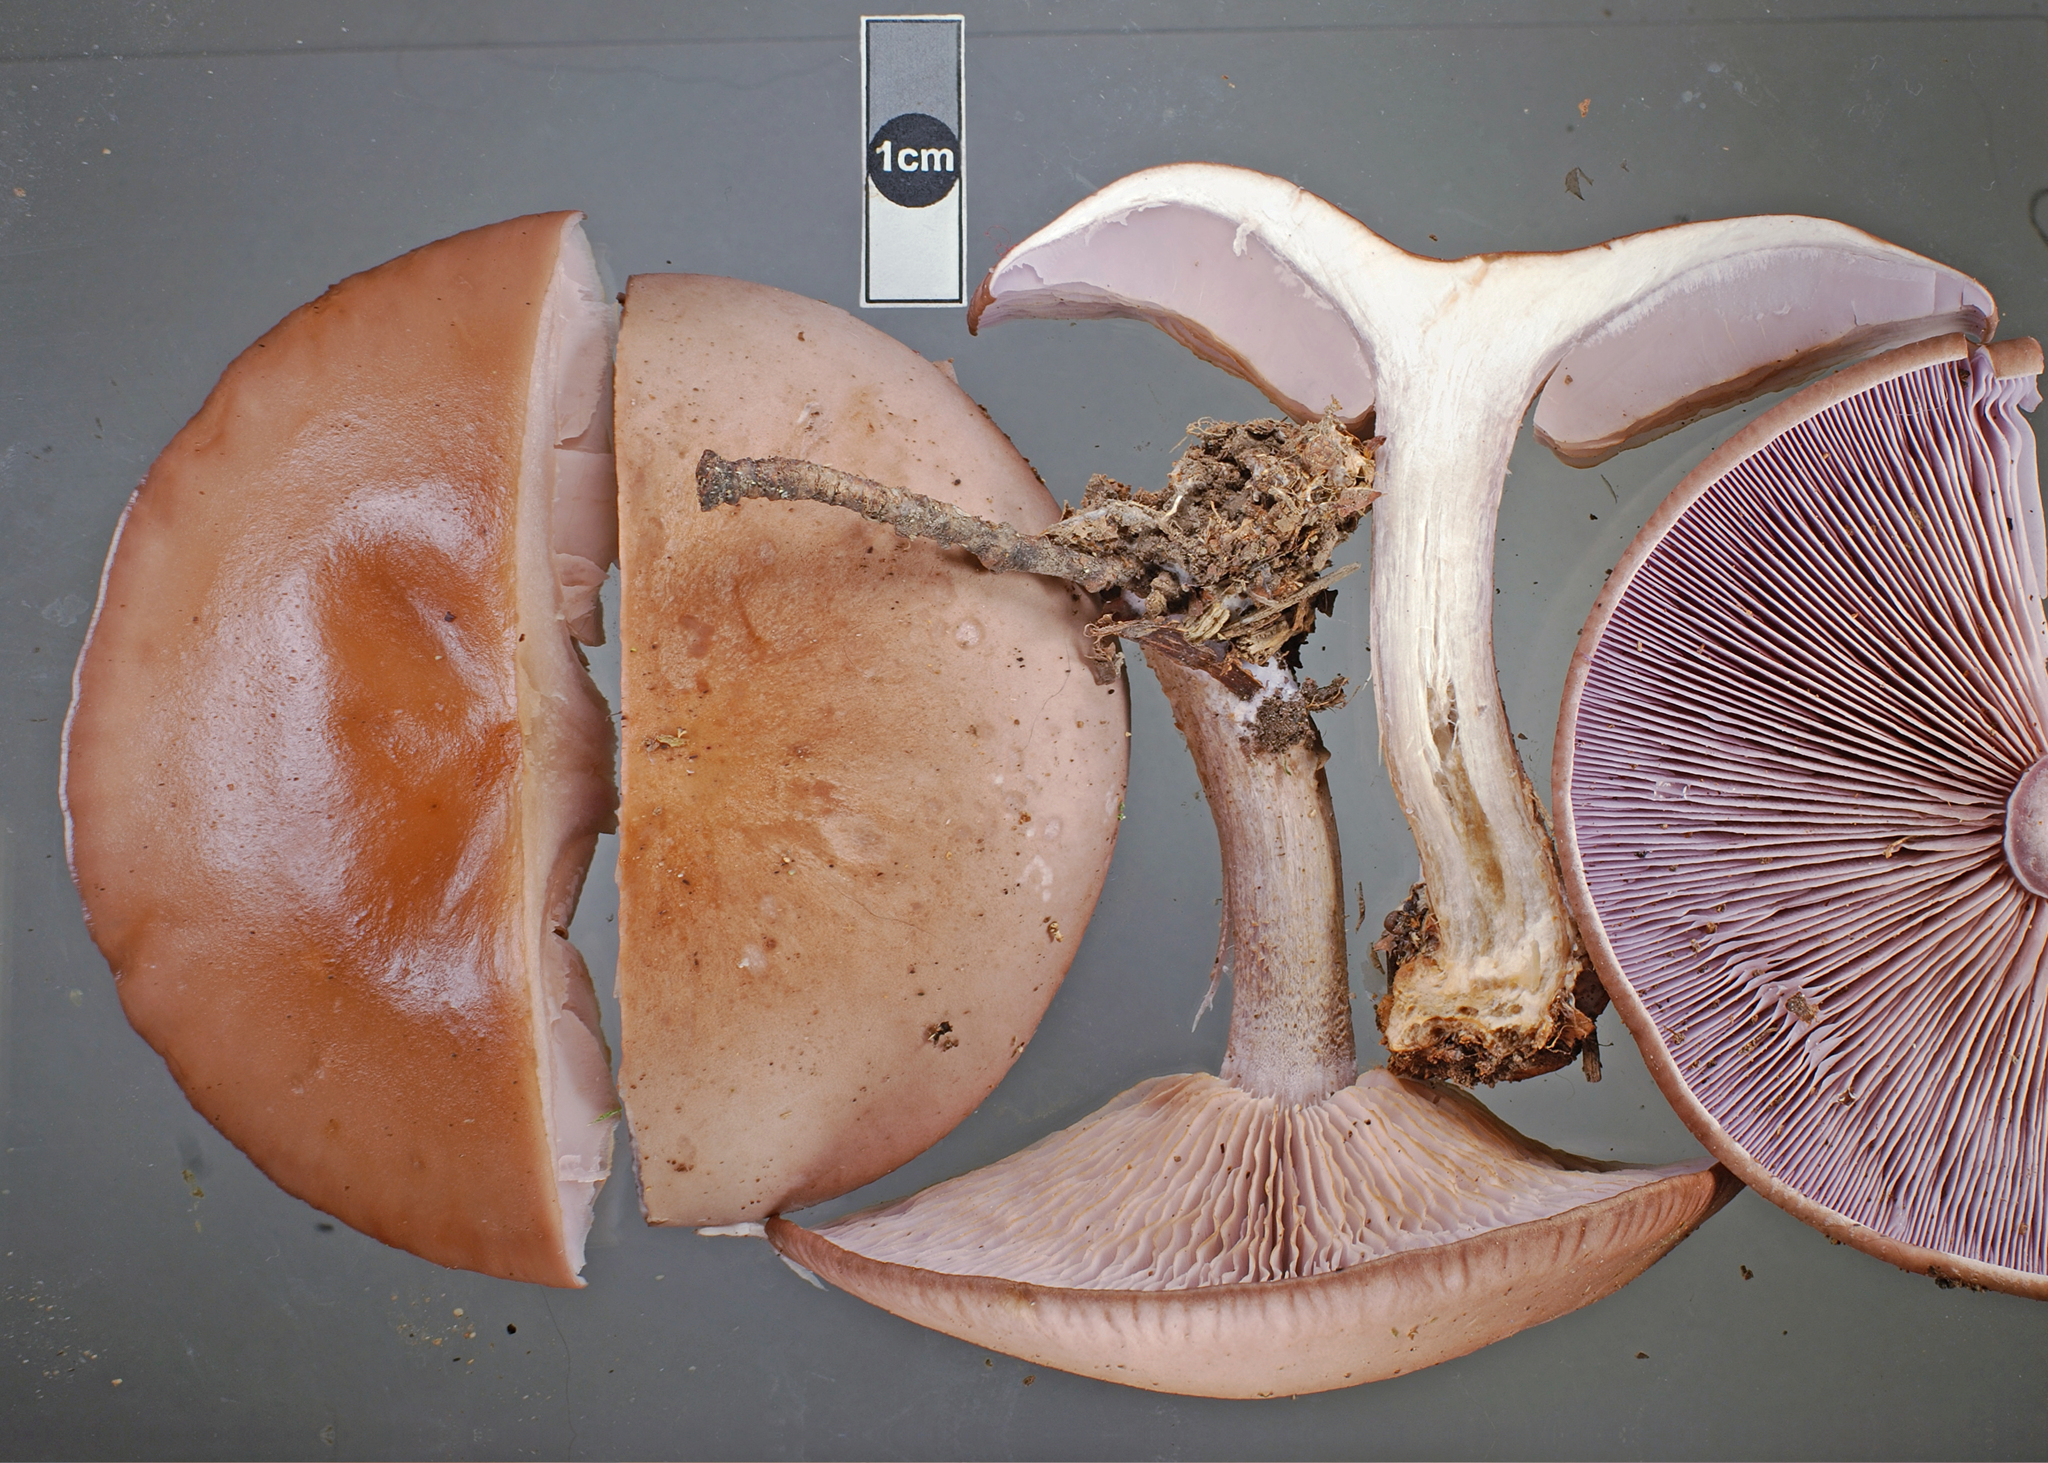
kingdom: Fungi
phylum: Basidiomycota
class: Agaricomycetes
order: Agaricales
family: Tricholomataceae
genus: Collybia
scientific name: Collybia
